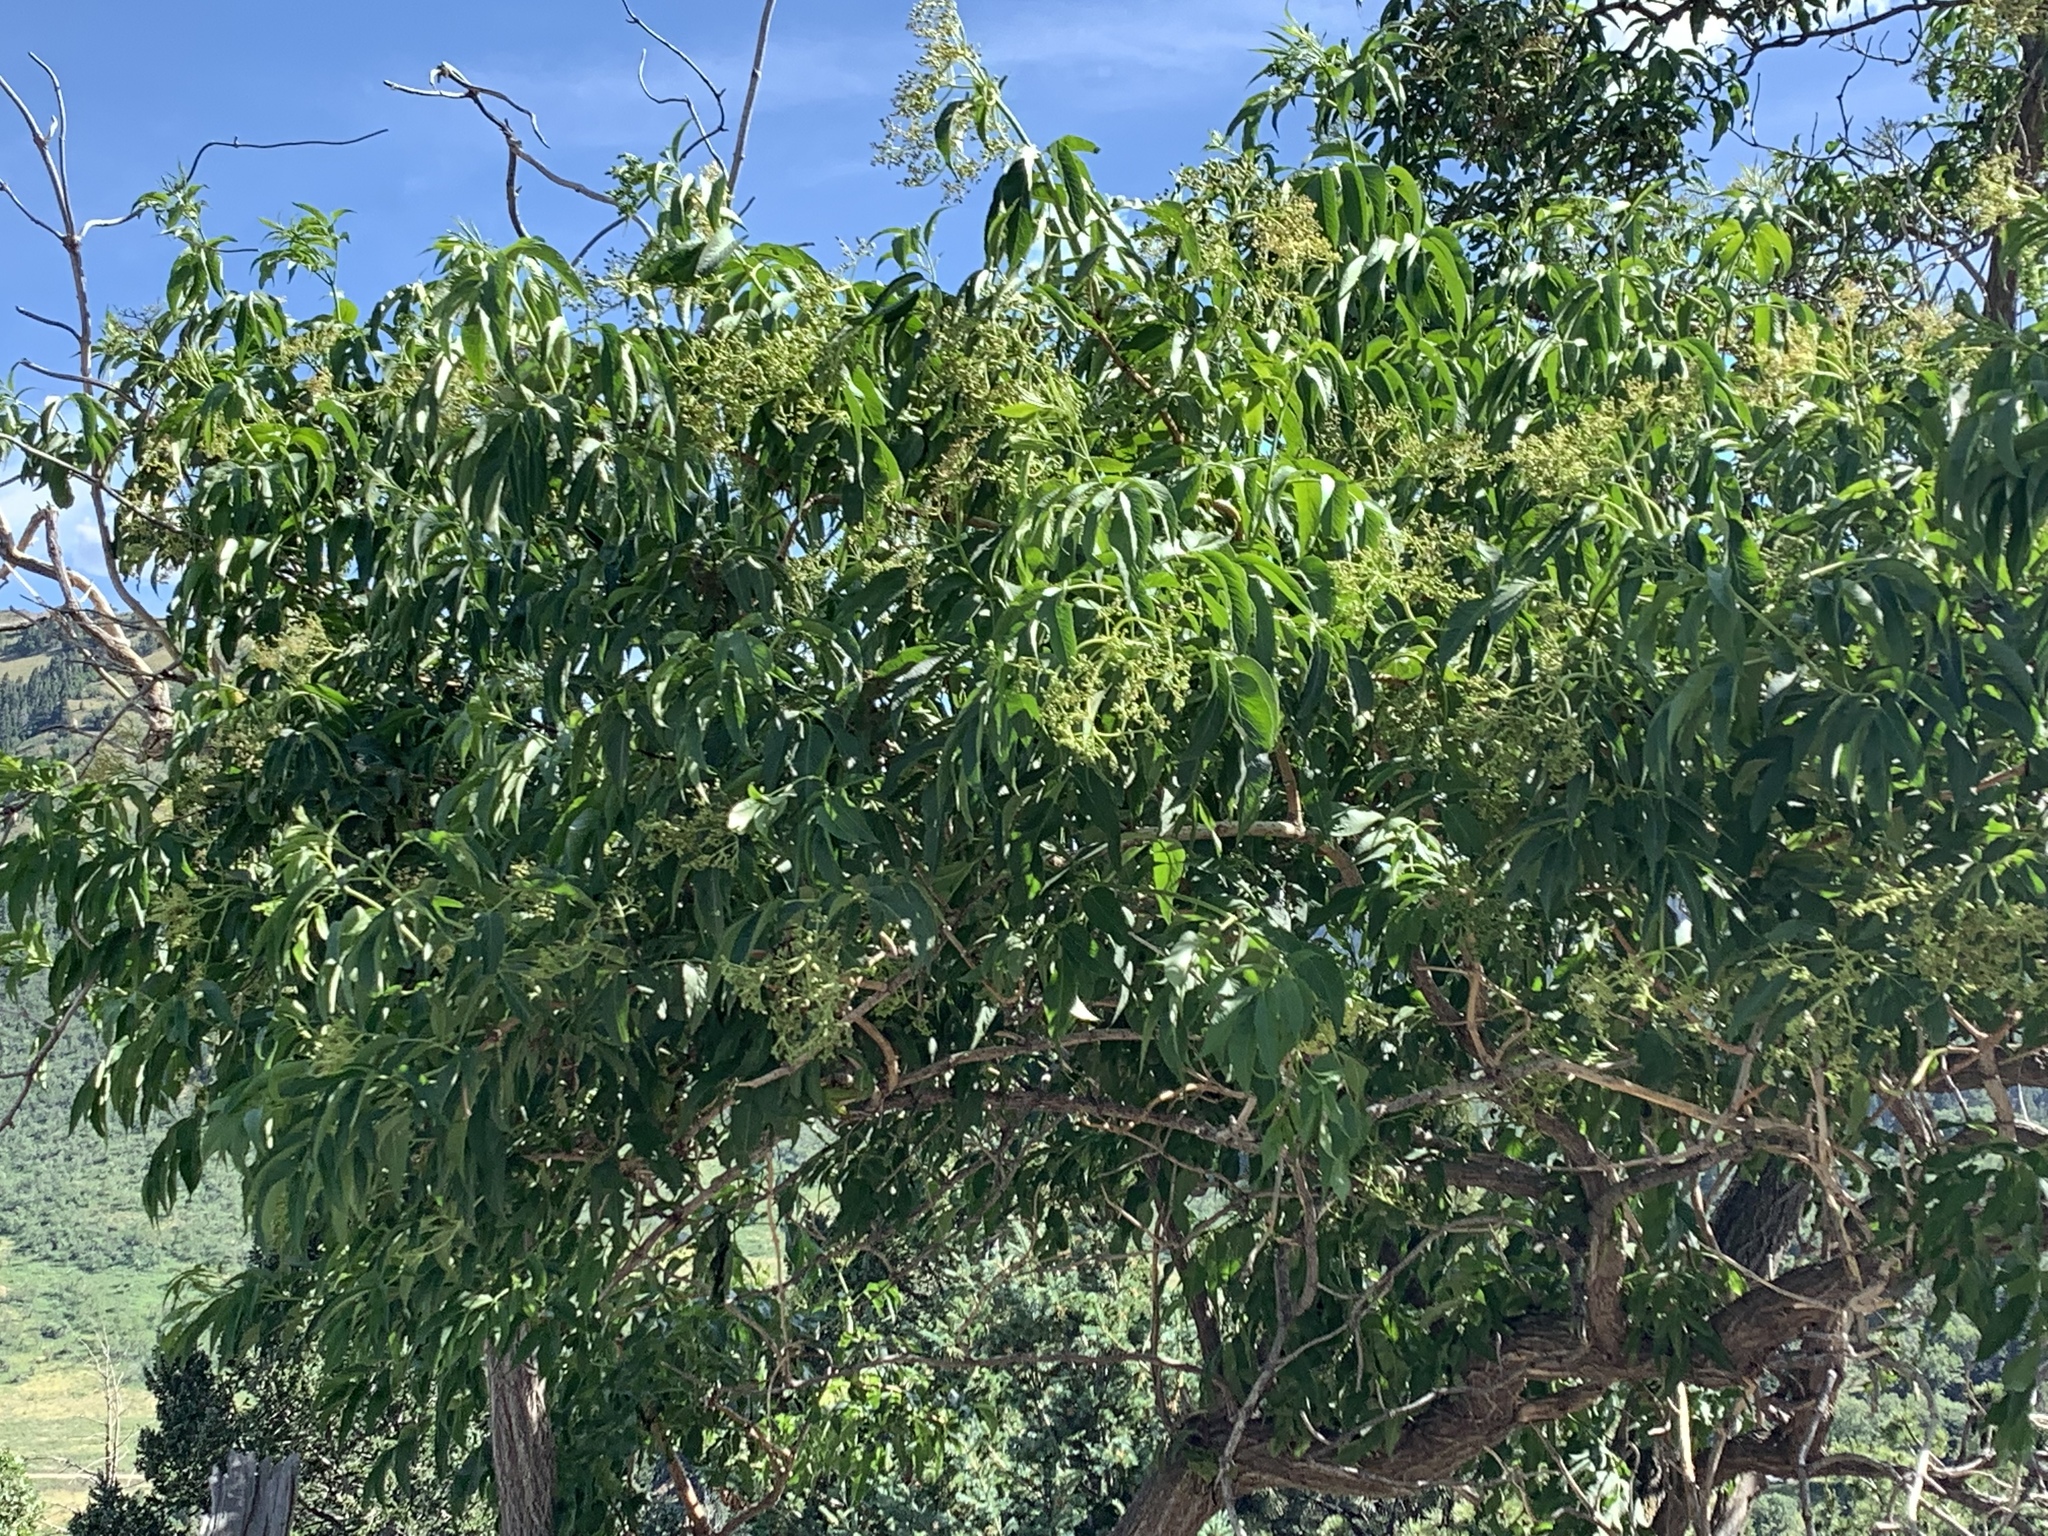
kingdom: Plantae
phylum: Tracheophyta
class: Magnoliopsida
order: Dipsacales
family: Viburnaceae
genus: Sambucus
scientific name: Sambucus cerulea
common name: Blue elder
